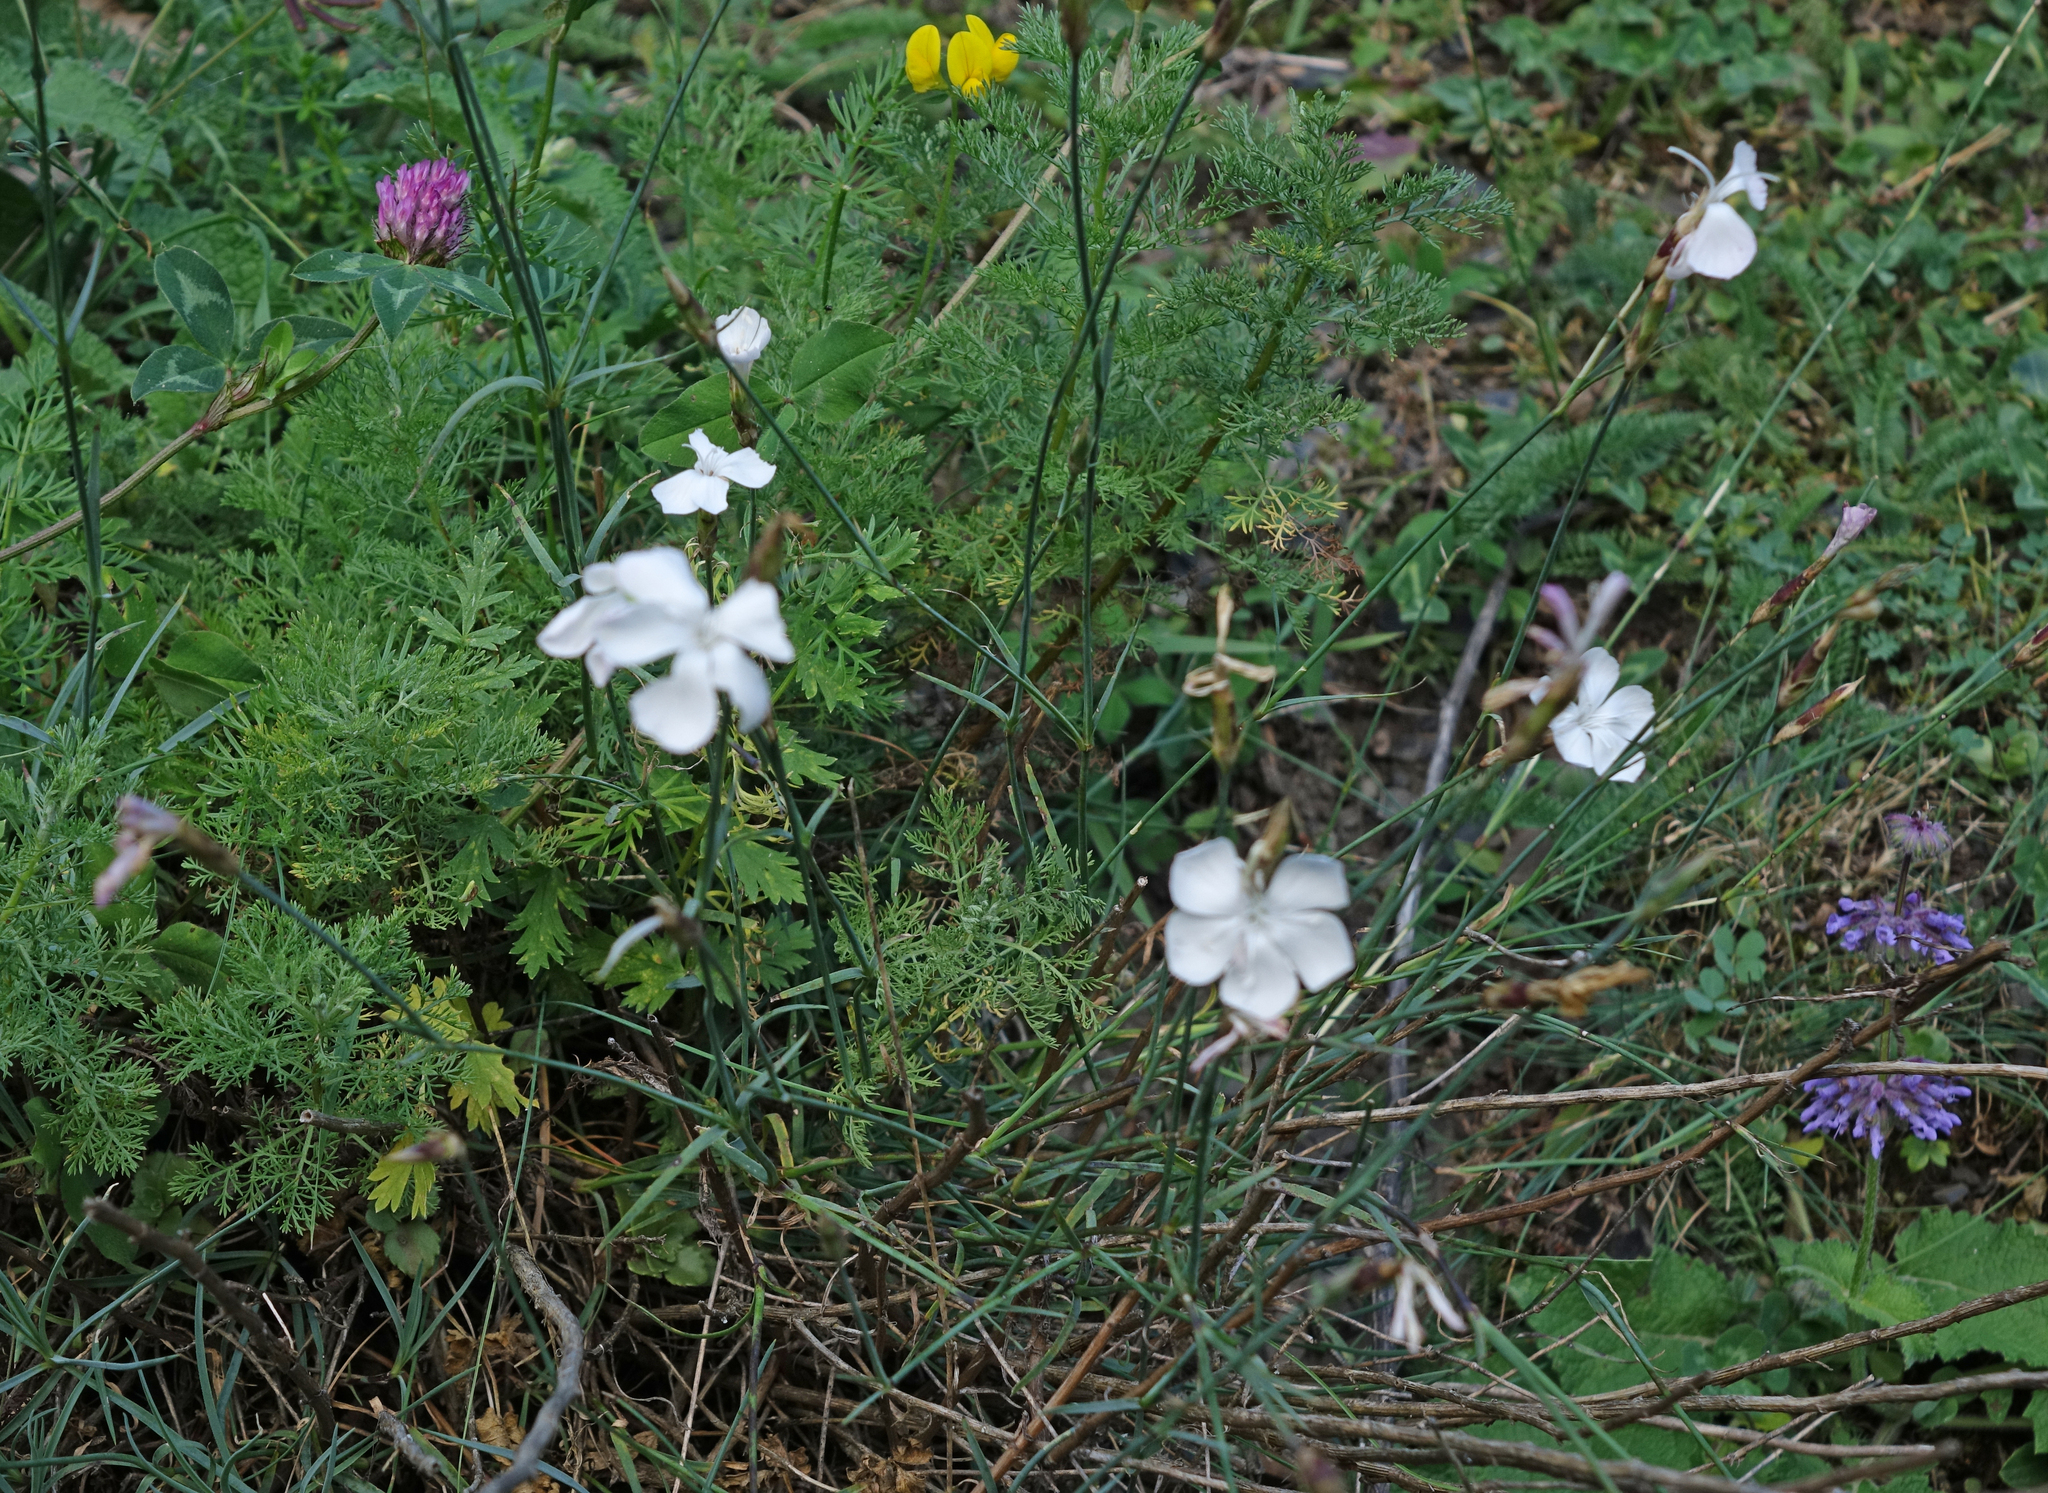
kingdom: Plantae
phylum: Tracheophyta
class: Magnoliopsida
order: Caryophyllales
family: Caryophyllaceae
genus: Dianthus
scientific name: Dianthus cretaceus
